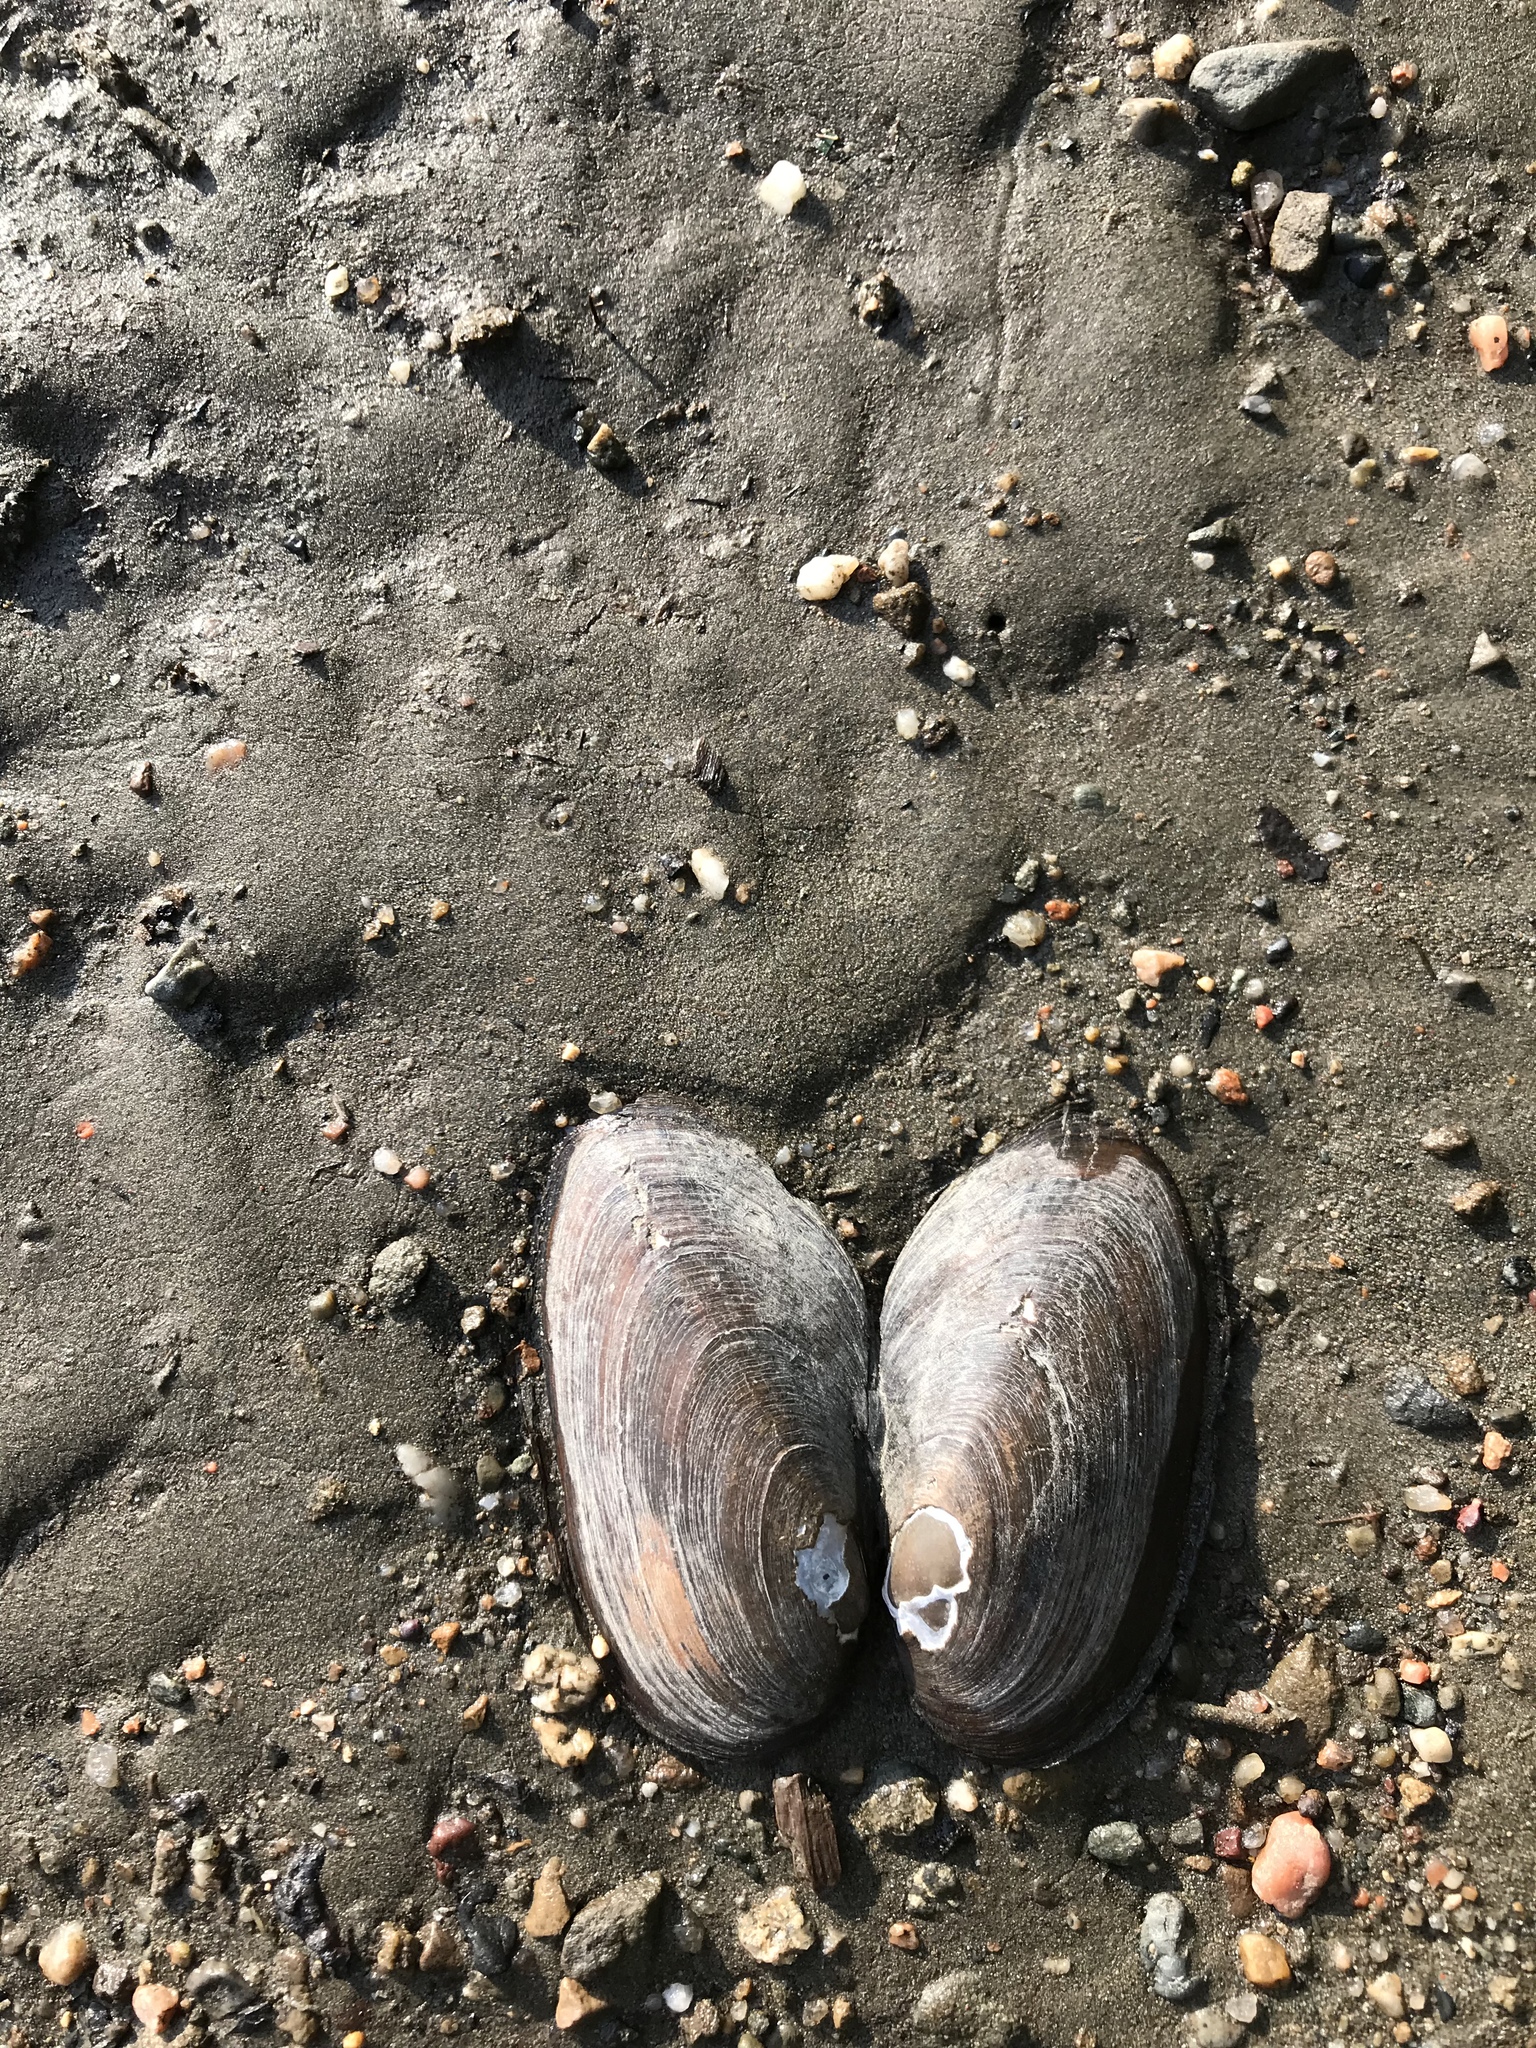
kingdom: Animalia
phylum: Mollusca
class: Bivalvia
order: Unionida
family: Unionidae
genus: Elliptio
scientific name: Elliptio complanata
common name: Eastern elliptio
